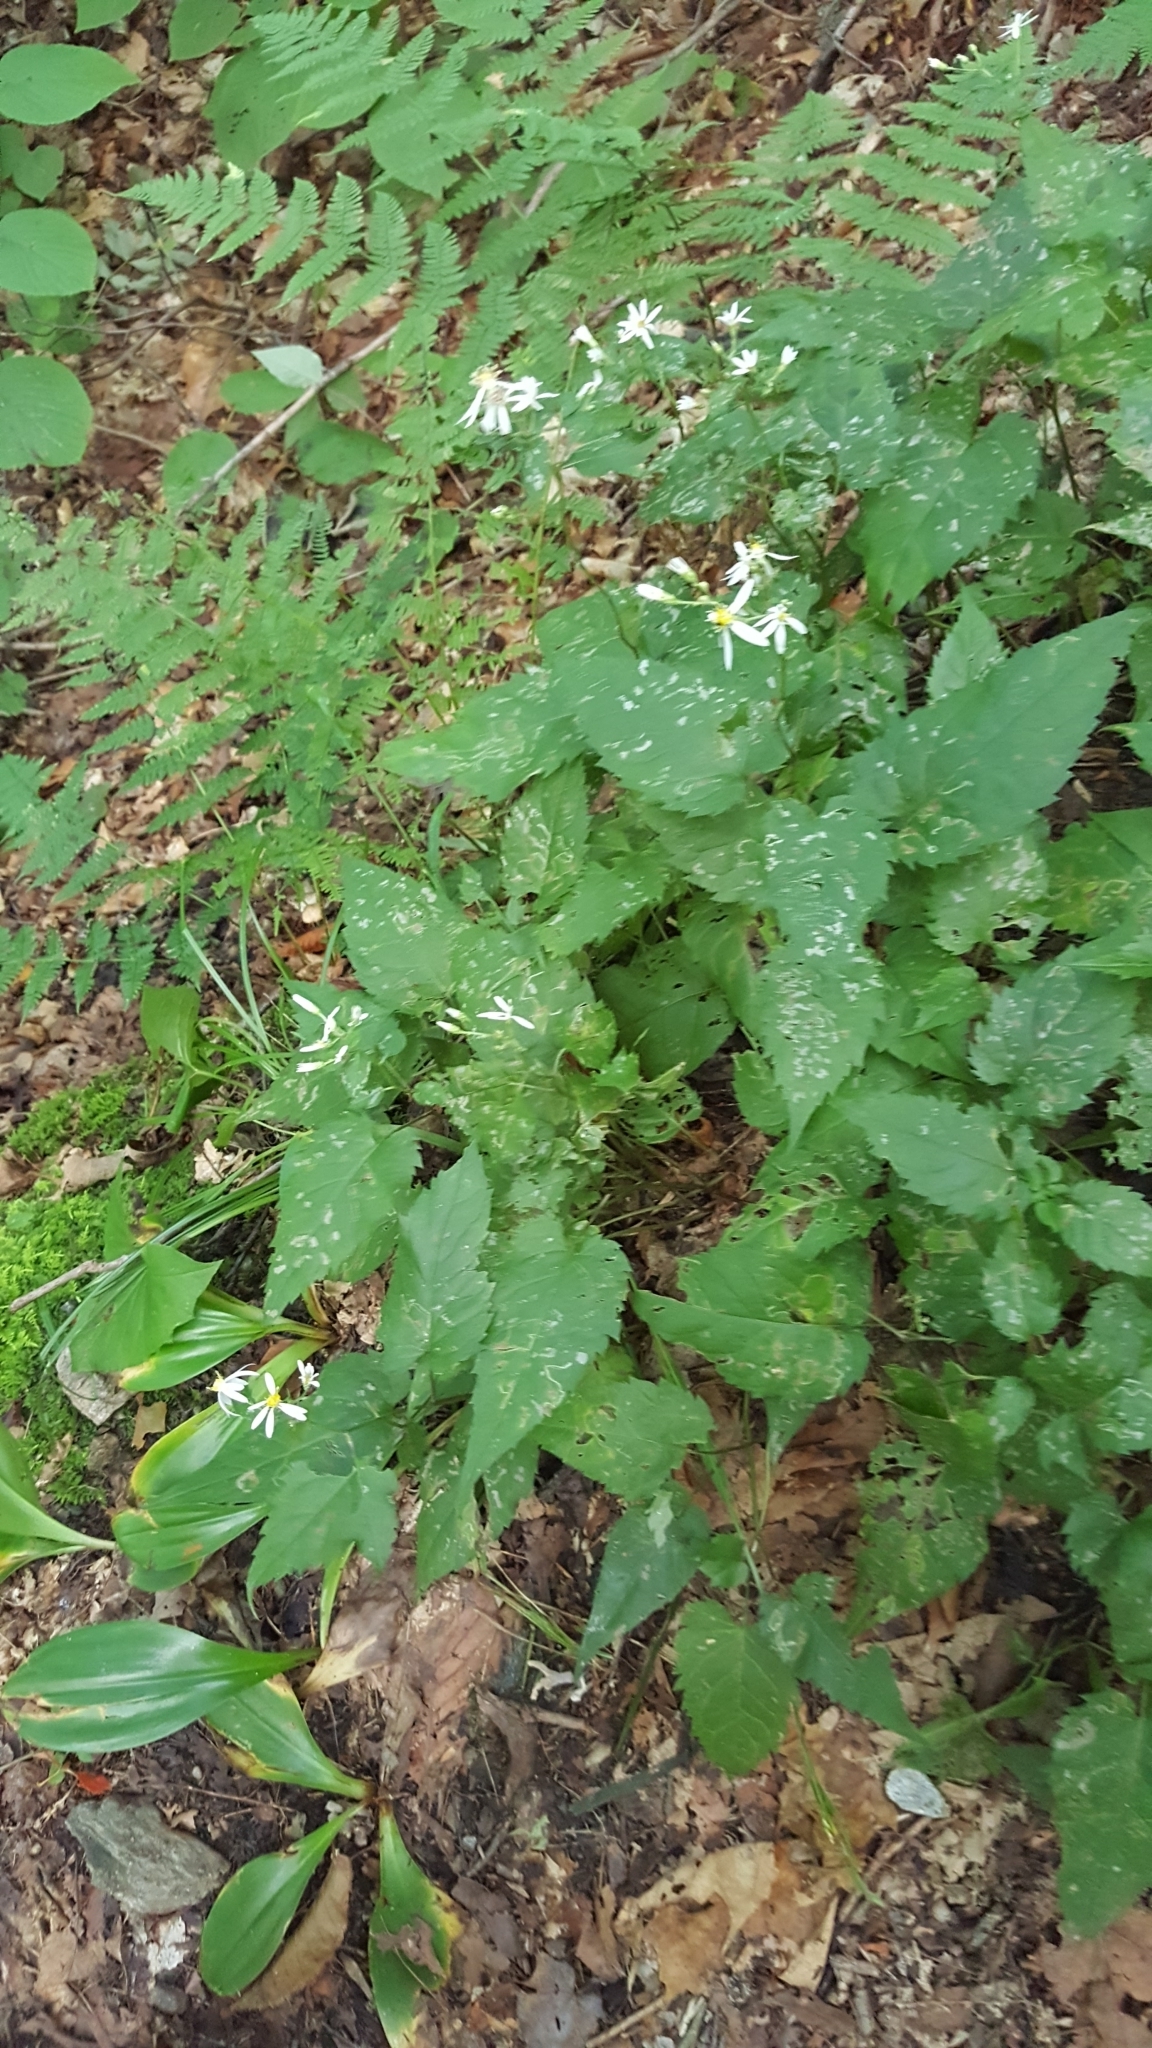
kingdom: Plantae
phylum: Tracheophyta
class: Magnoliopsida
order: Asterales
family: Asteraceae
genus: Eurybia
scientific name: Eurybia divaricata
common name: White wood aster
